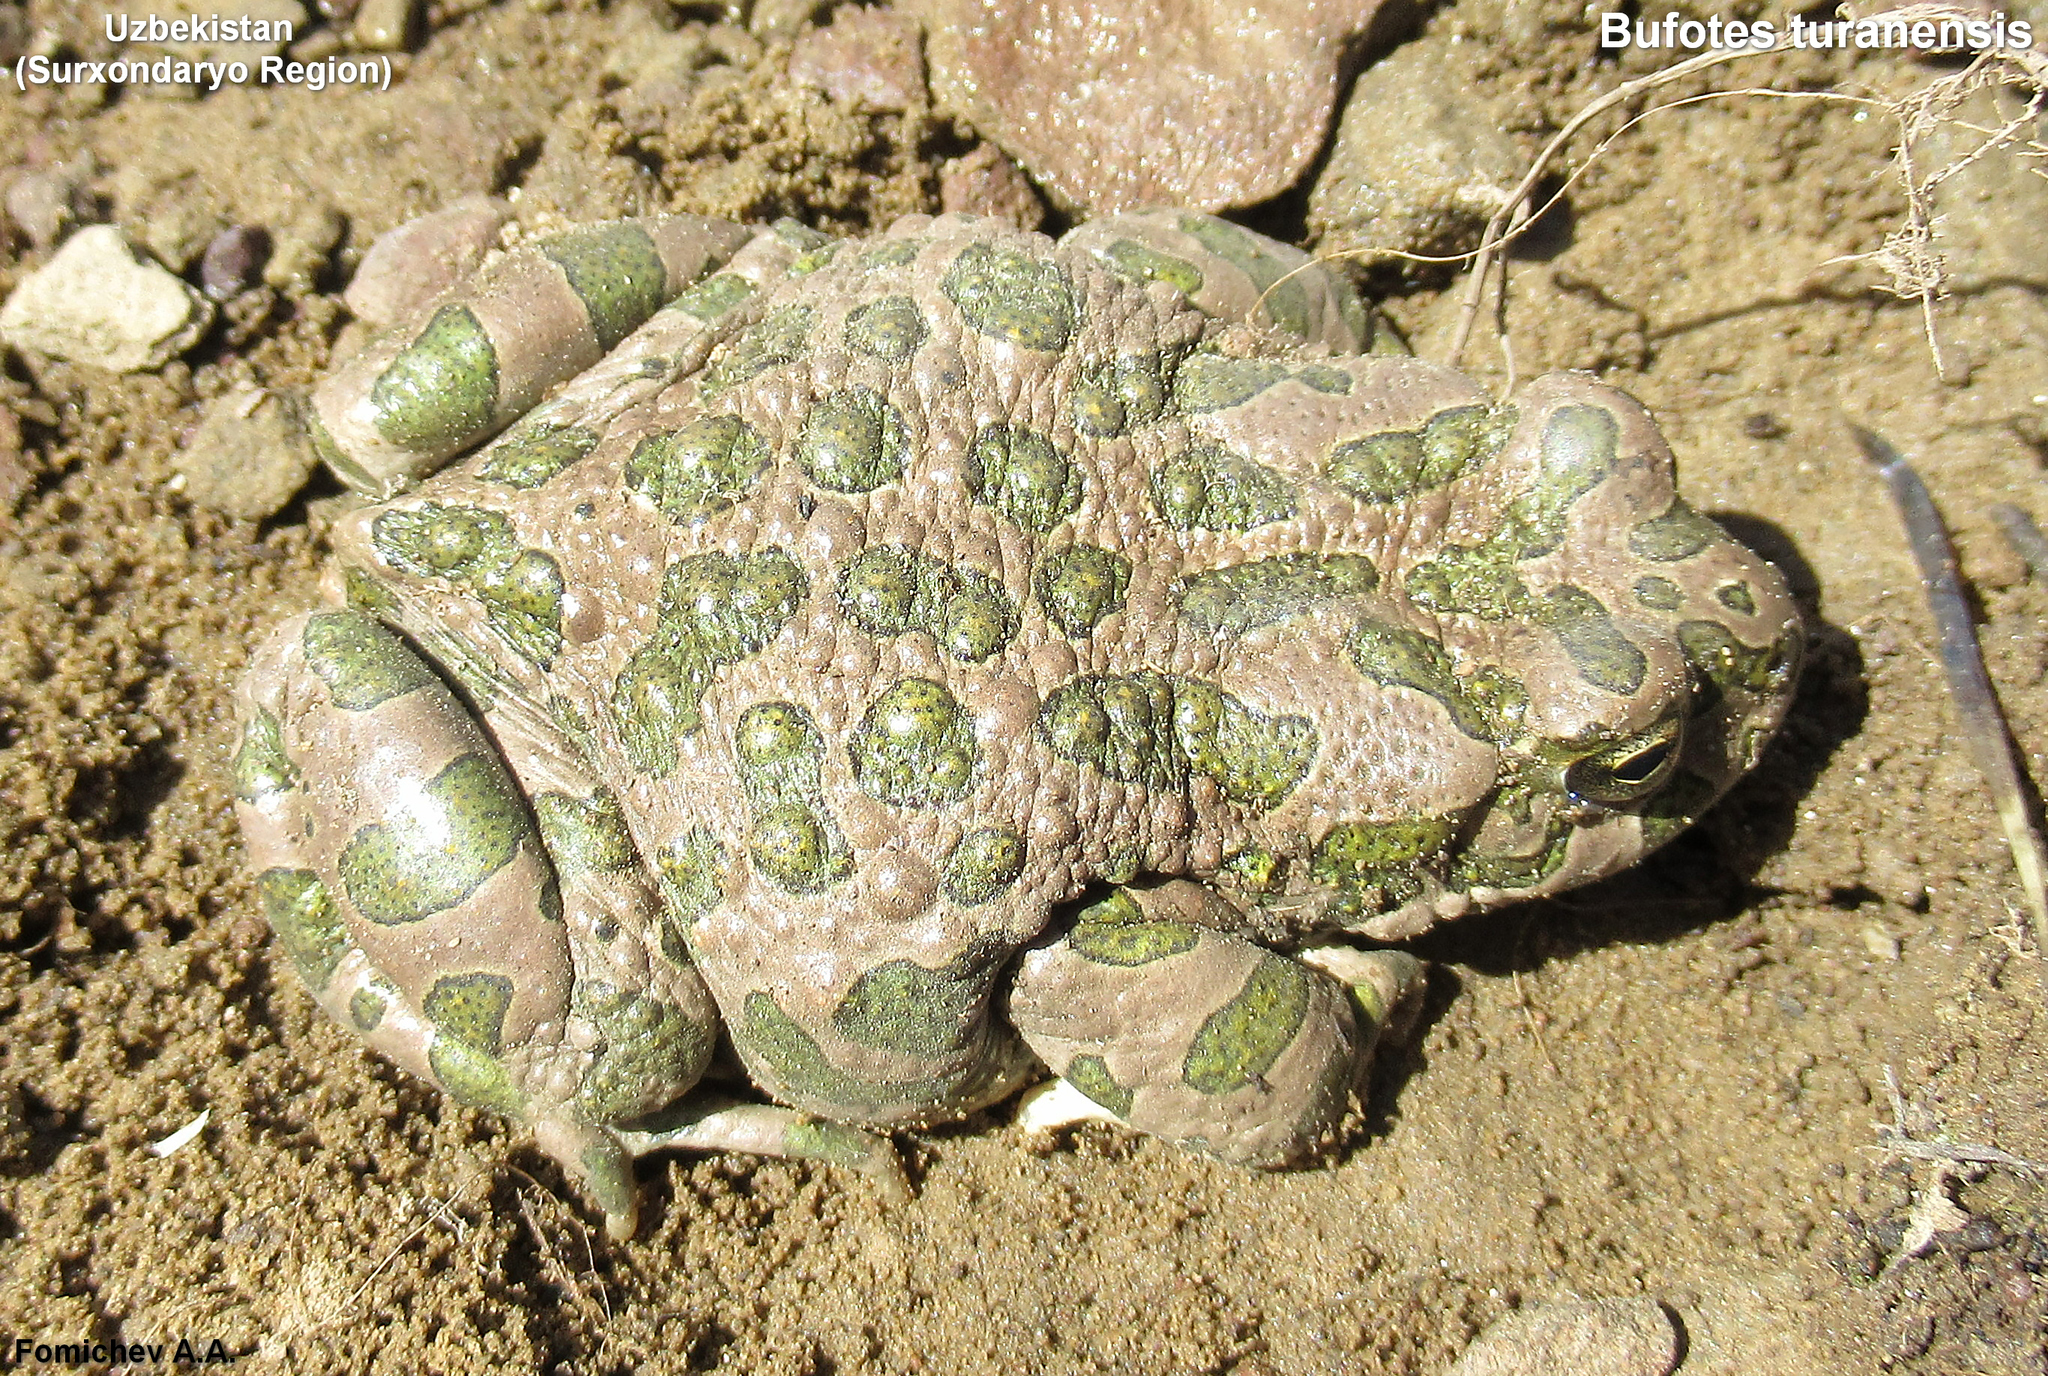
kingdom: Animalia
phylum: Chordata
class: Amphibia
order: Anura
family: Bufonidae
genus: Bufotes
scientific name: Bufotes turanensis
